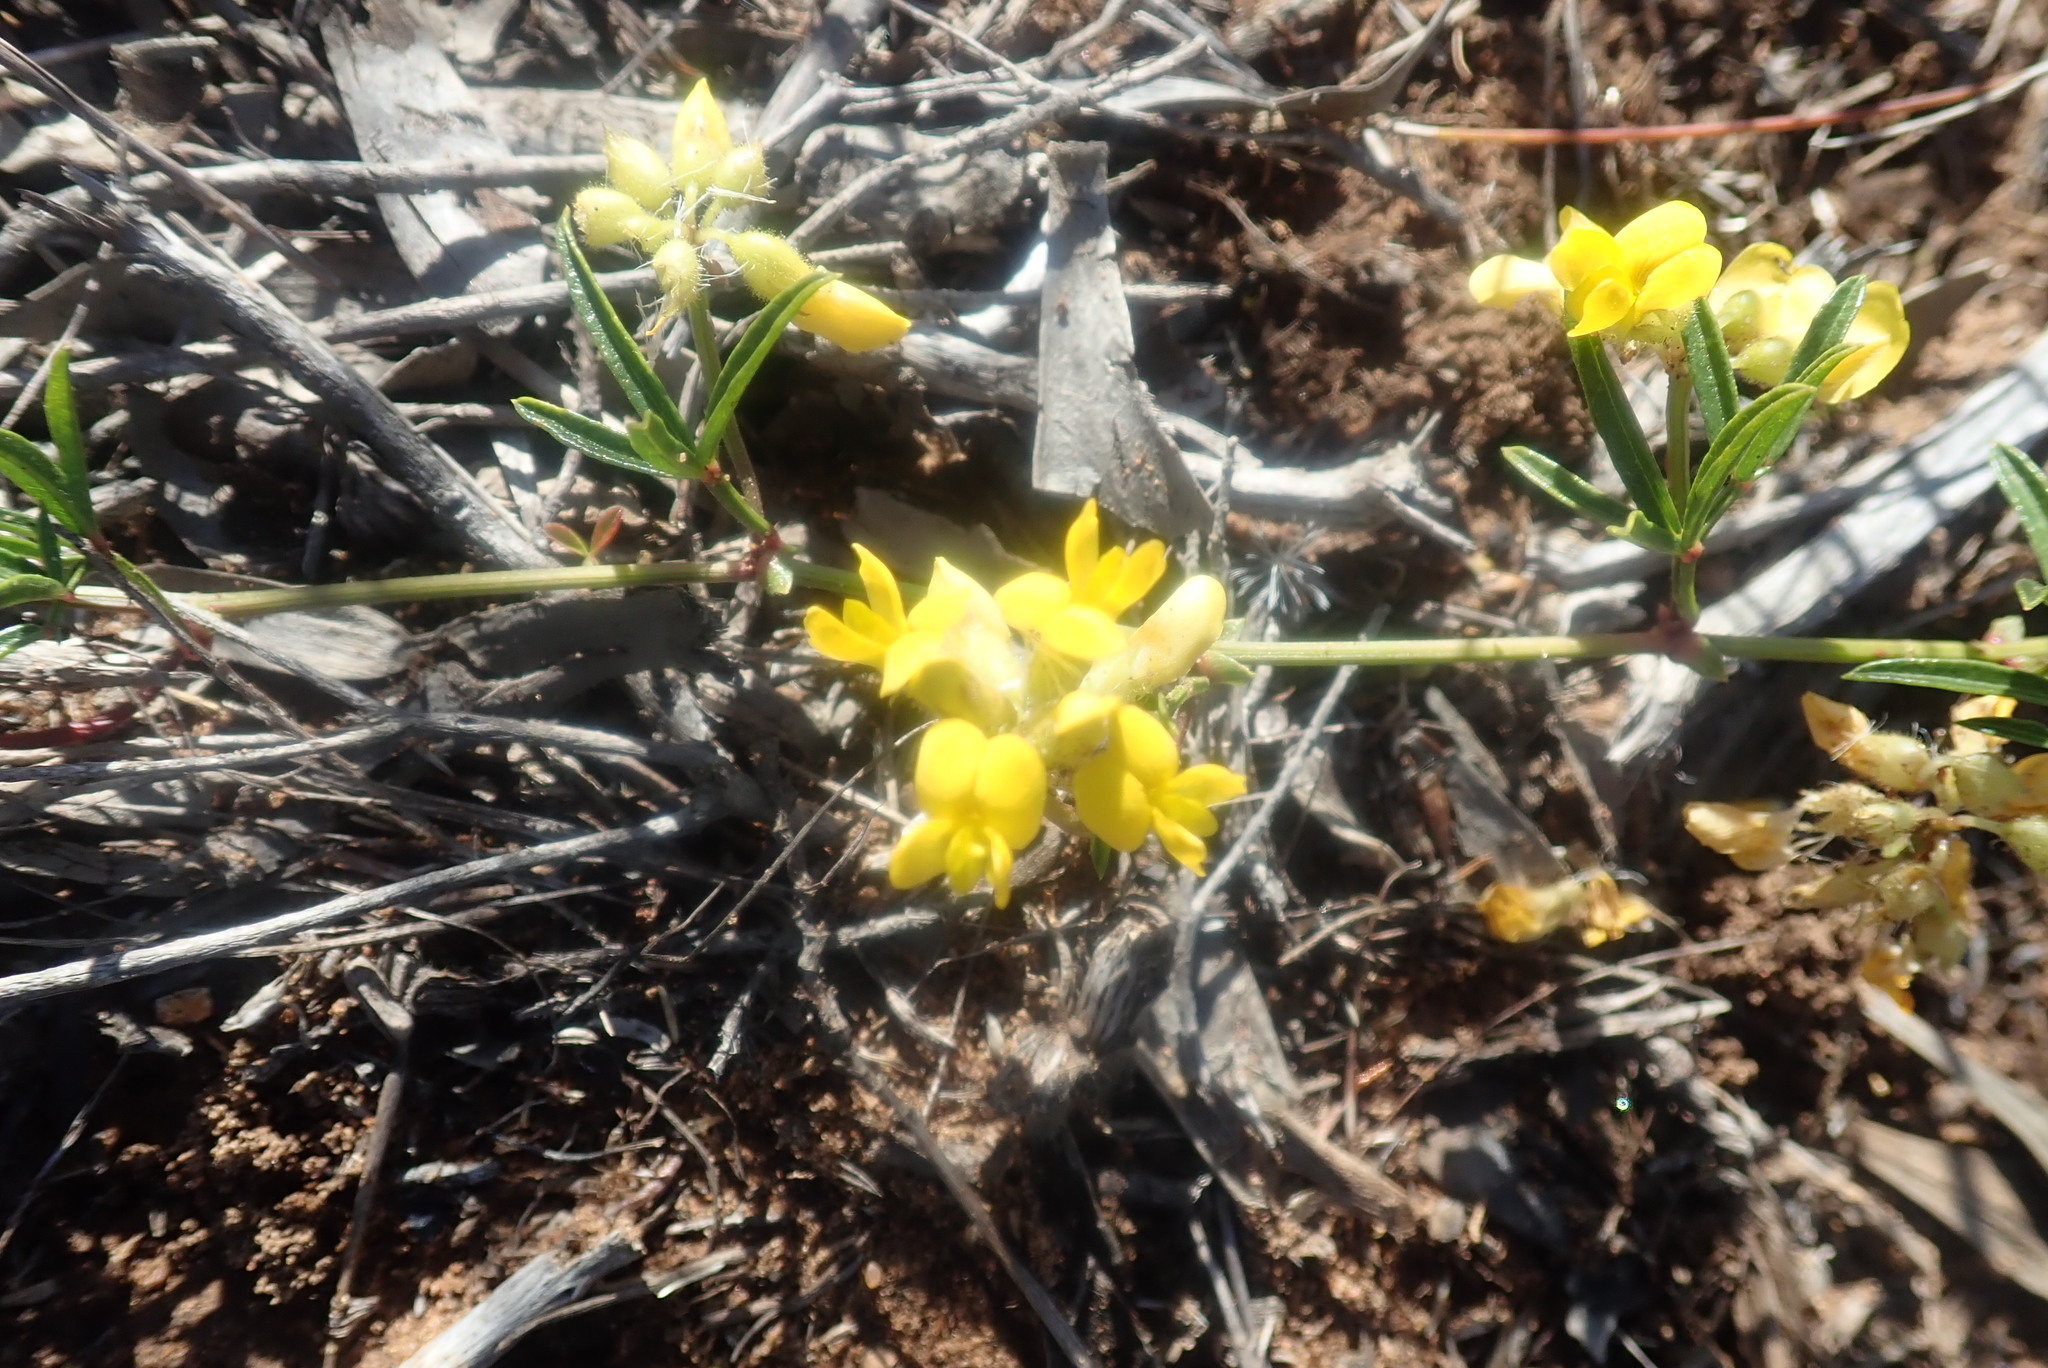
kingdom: Plantae
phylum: Tracheophyta
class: Magnoliopsida
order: Fabales
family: Fabaceae
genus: Rhynchosia
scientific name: Rhynchosia ferulifolia
